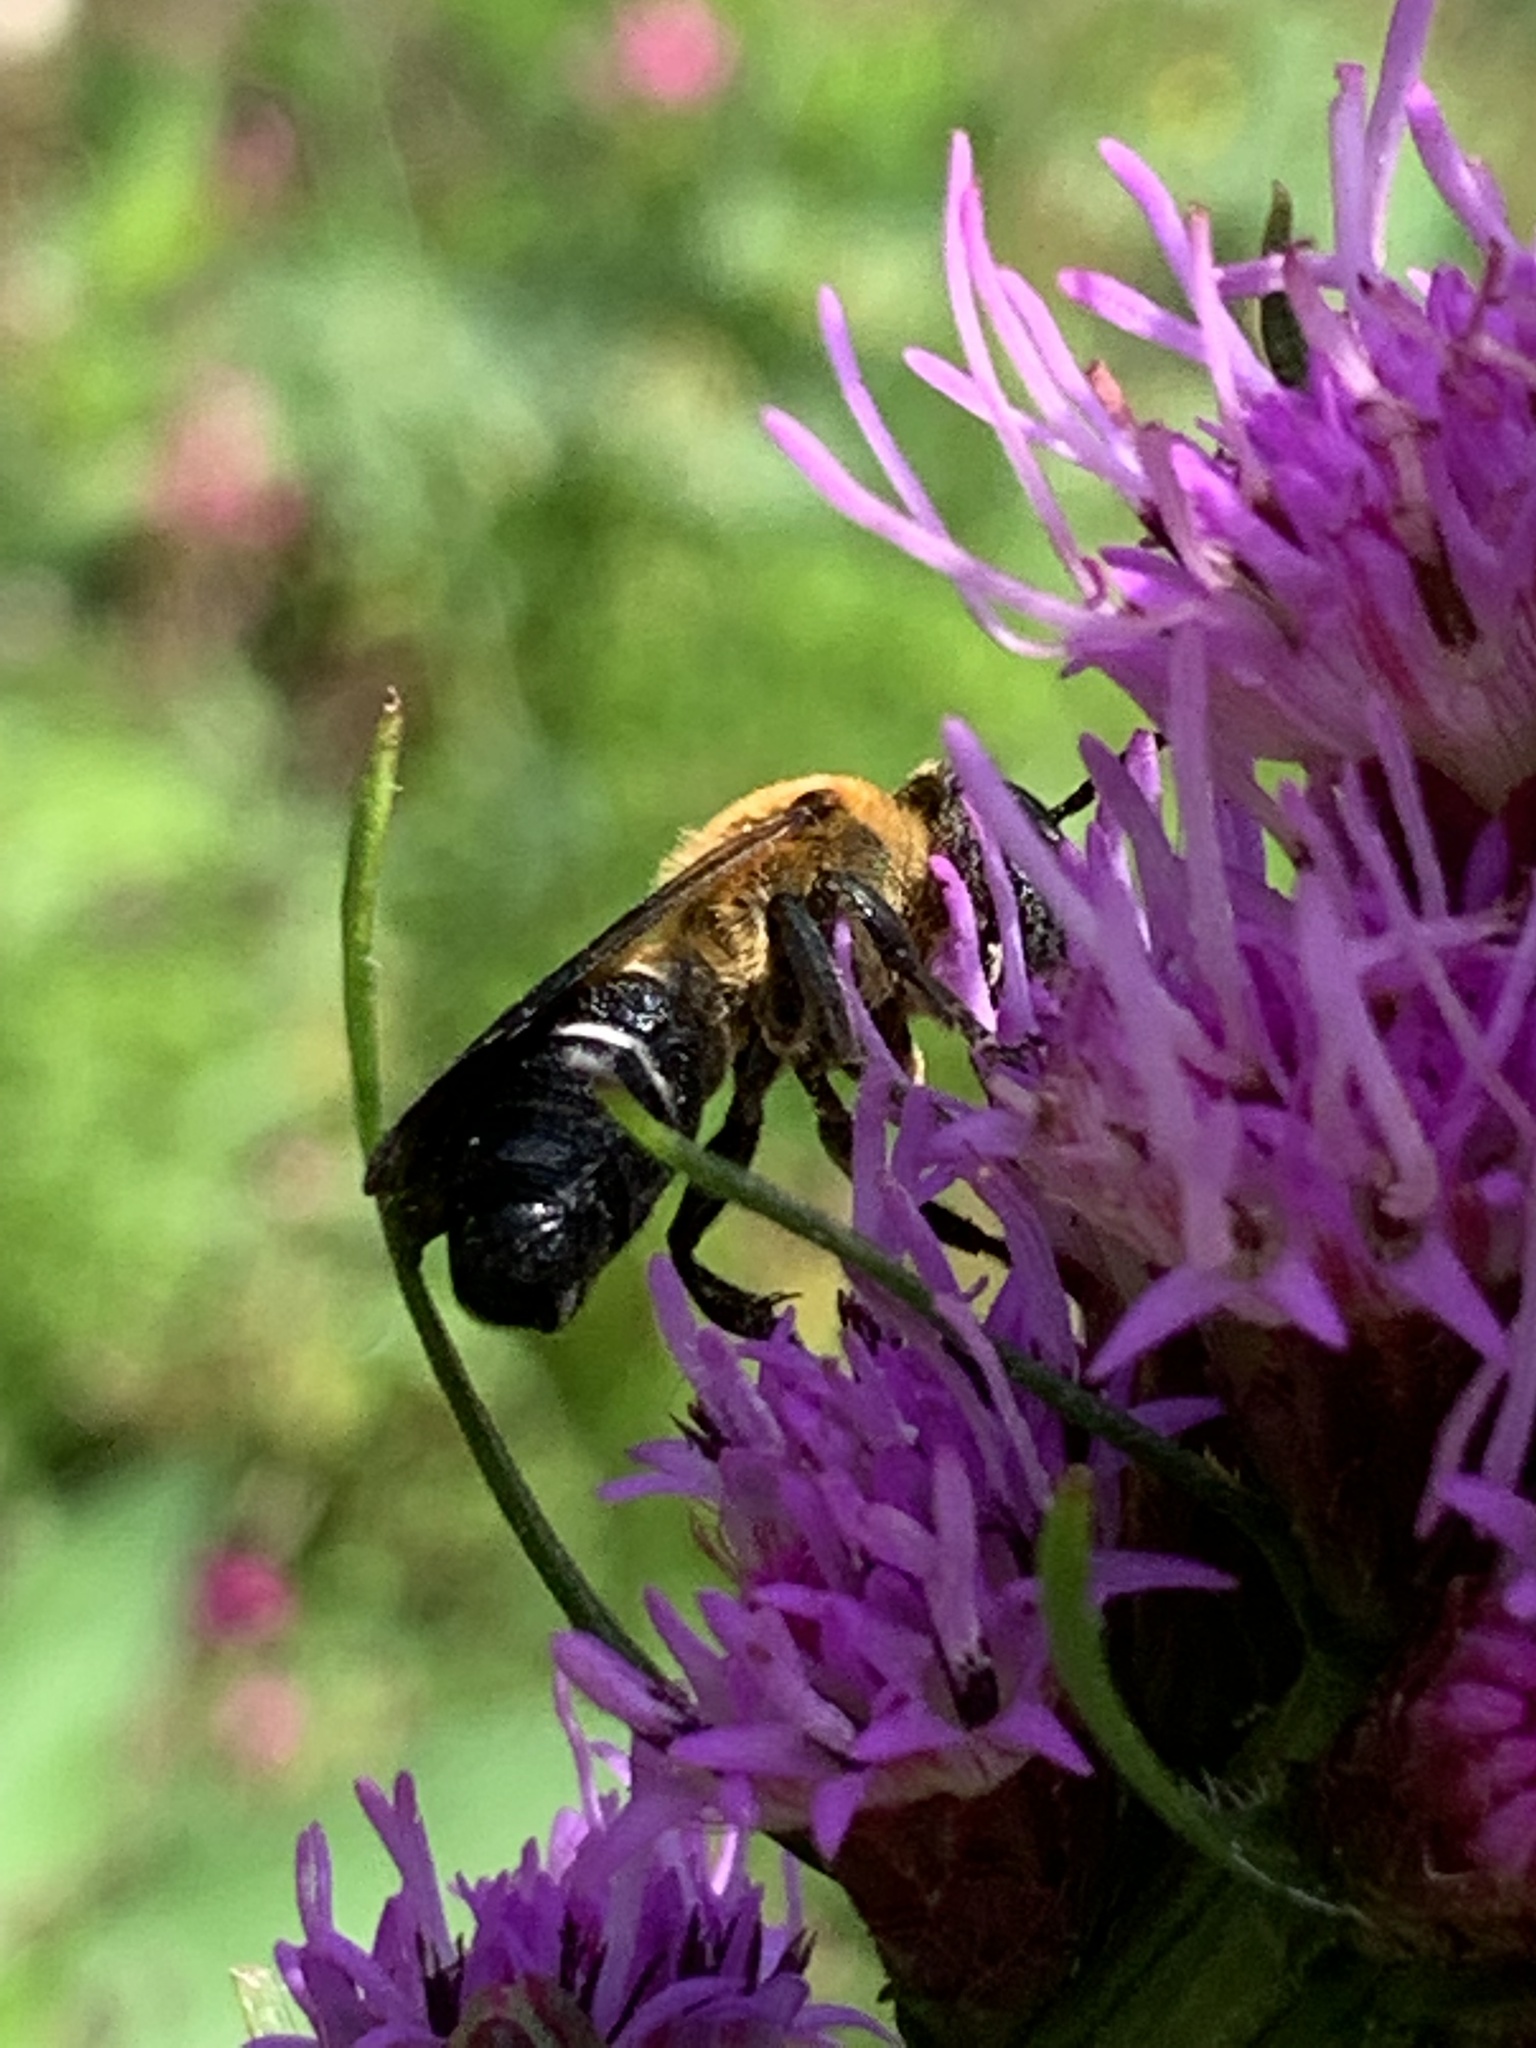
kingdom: Animalia
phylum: Arthropoda
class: Insecta
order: Hymenoptera
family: Megachilidae
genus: Megachile
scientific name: Megachile sculpturalis
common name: Sculptured resin bee
